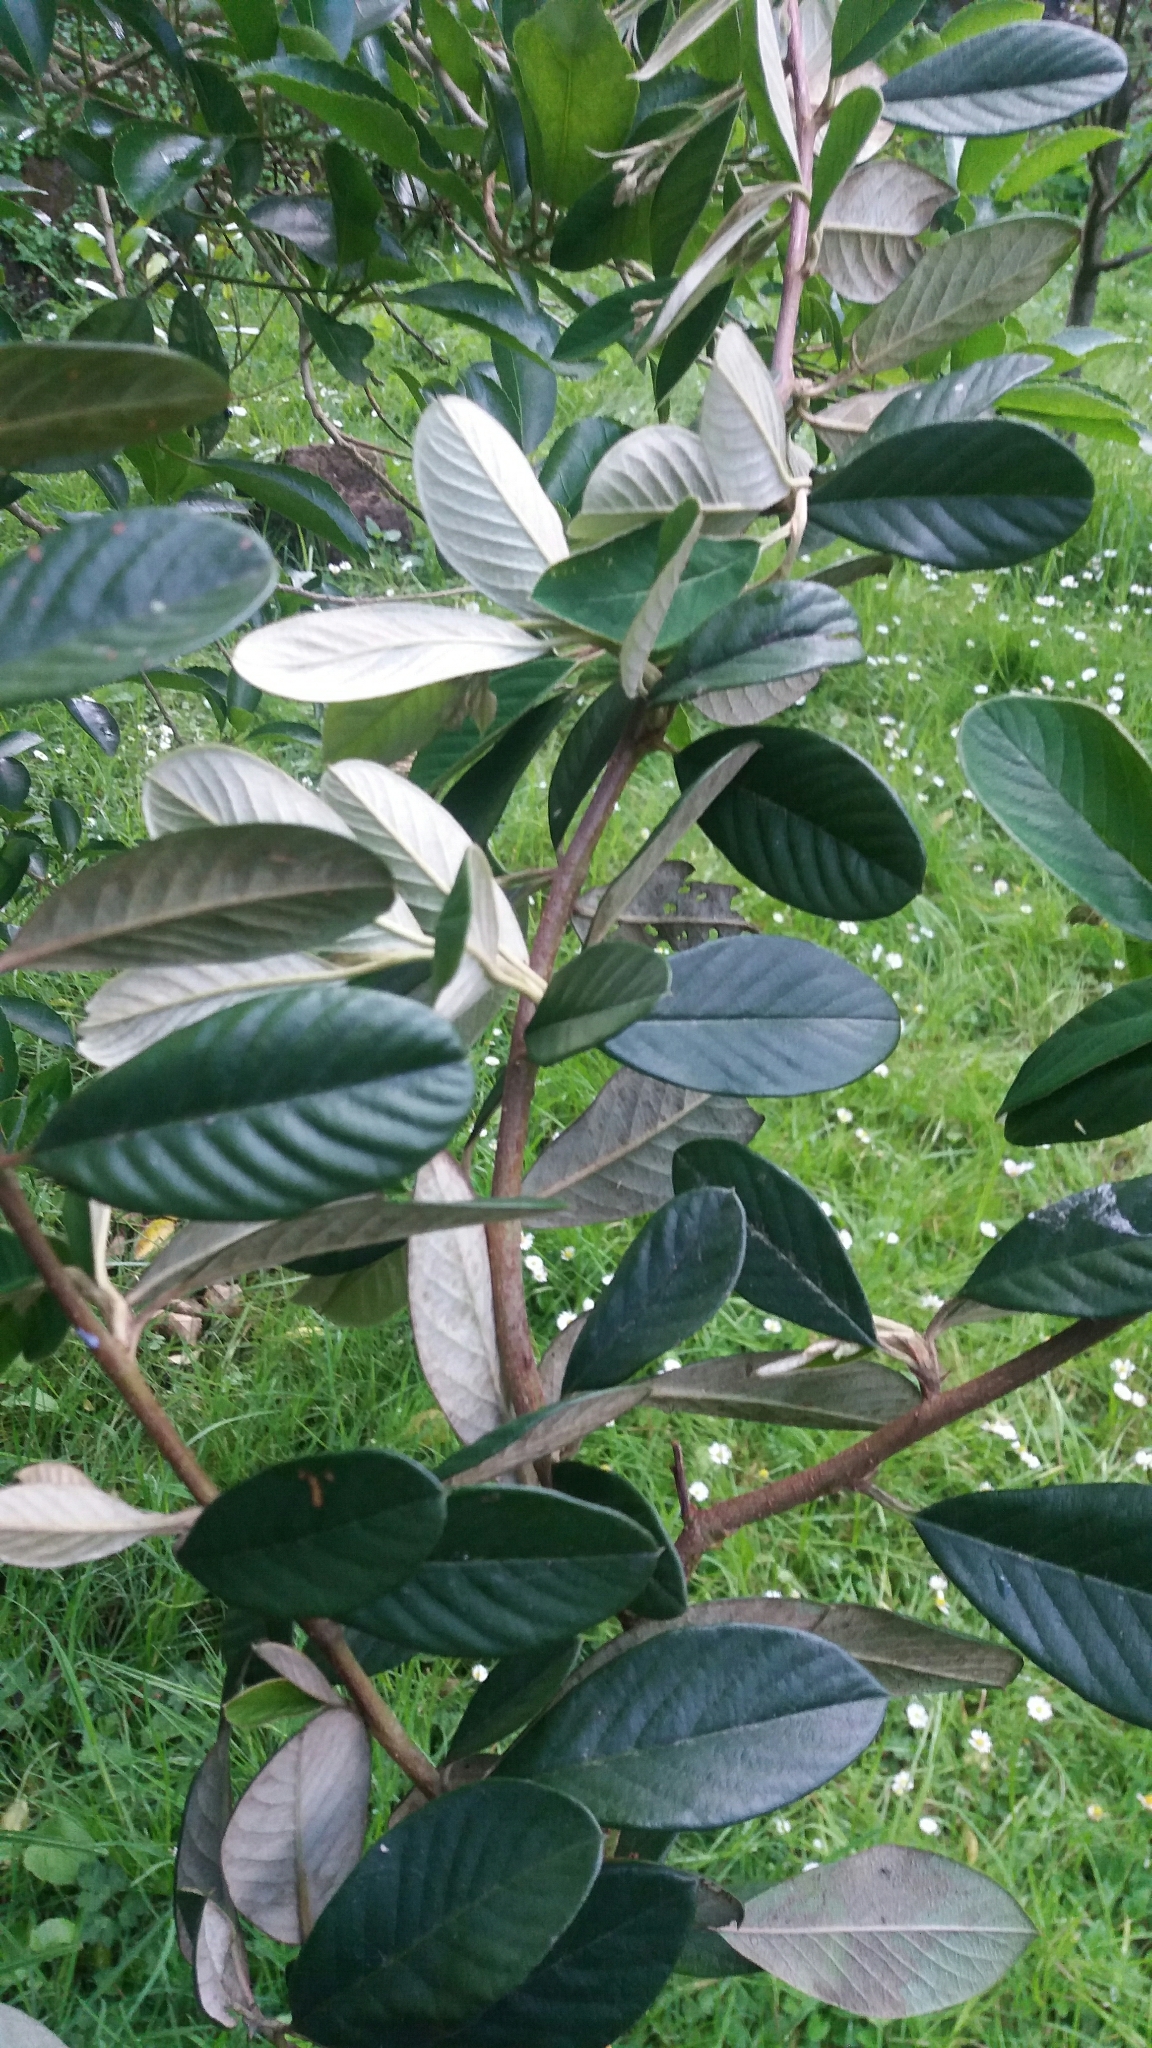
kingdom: Plantae
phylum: Tracheophyta
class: Magnoliopsida
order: Rosales
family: Rosaceae
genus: Cotoneaster
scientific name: Cotoneaster coriaceus
